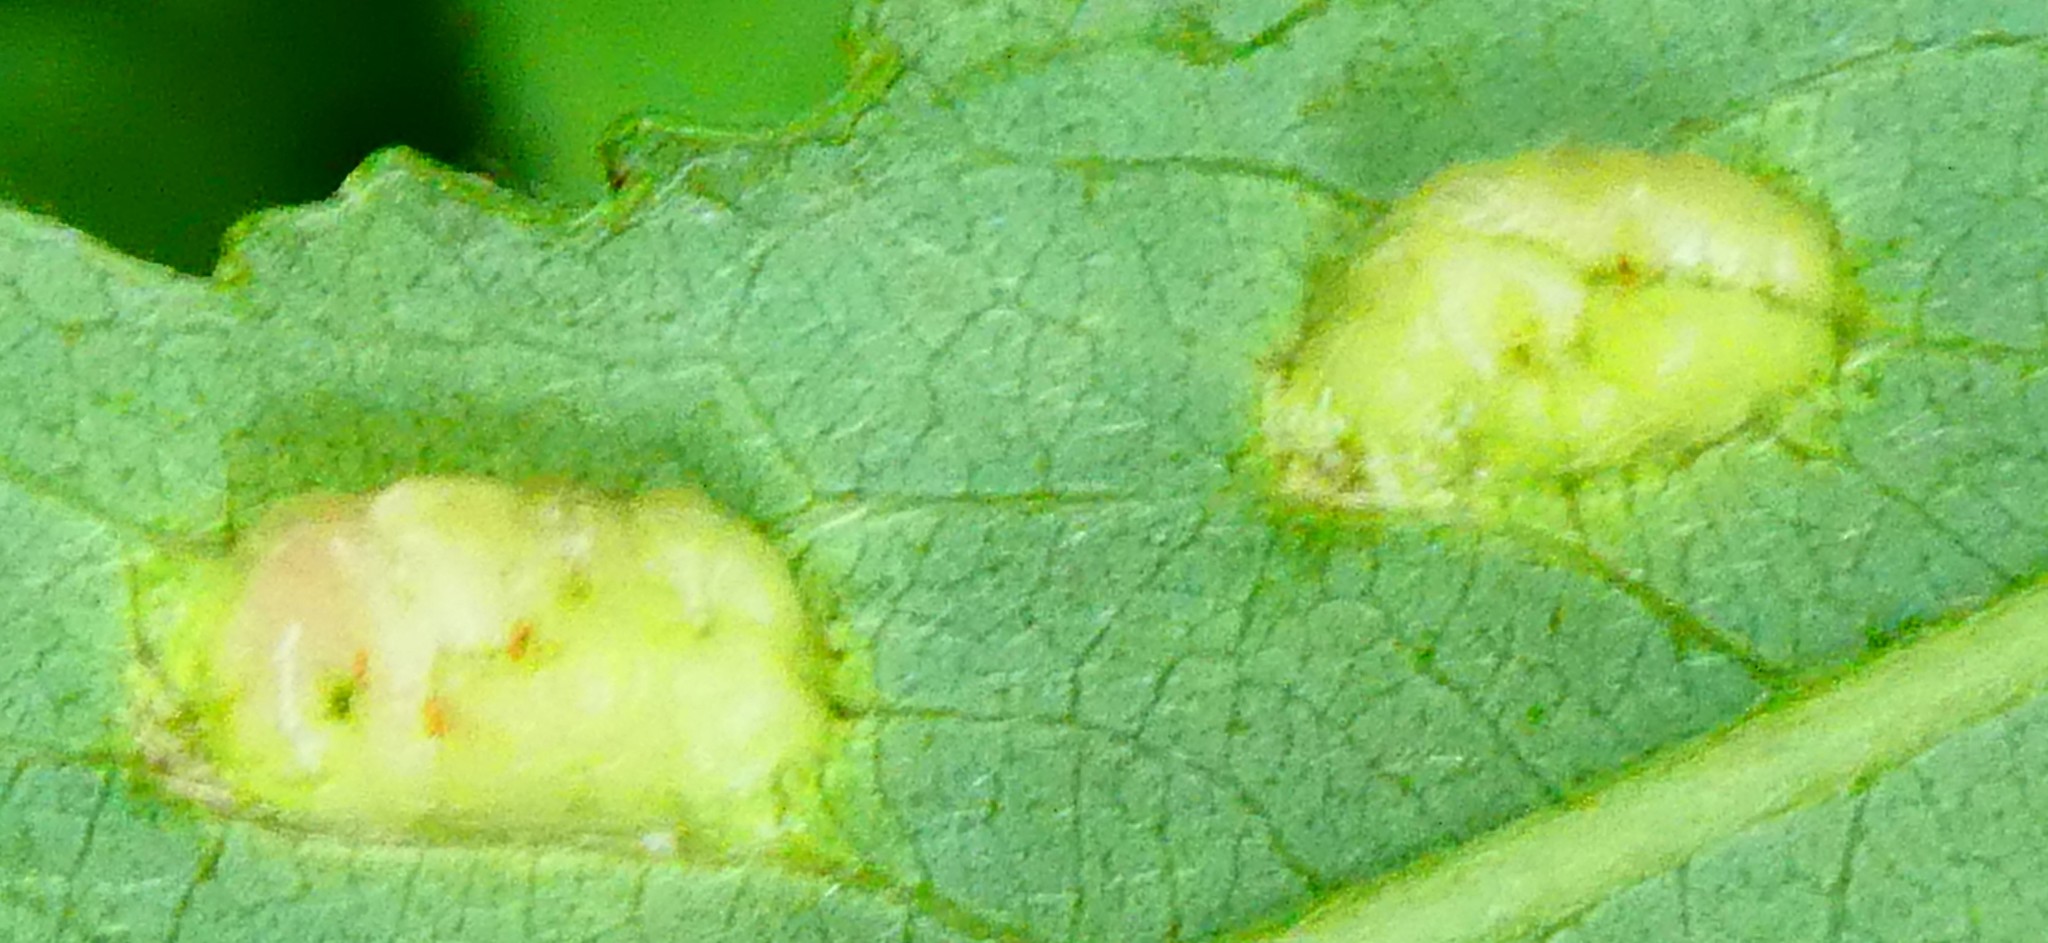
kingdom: Animalia
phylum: Arthropoda
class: Insecta
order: Hymenoptera
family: Tenthredinidae
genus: Pontania
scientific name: Pontania proxima
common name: Common sawfly
